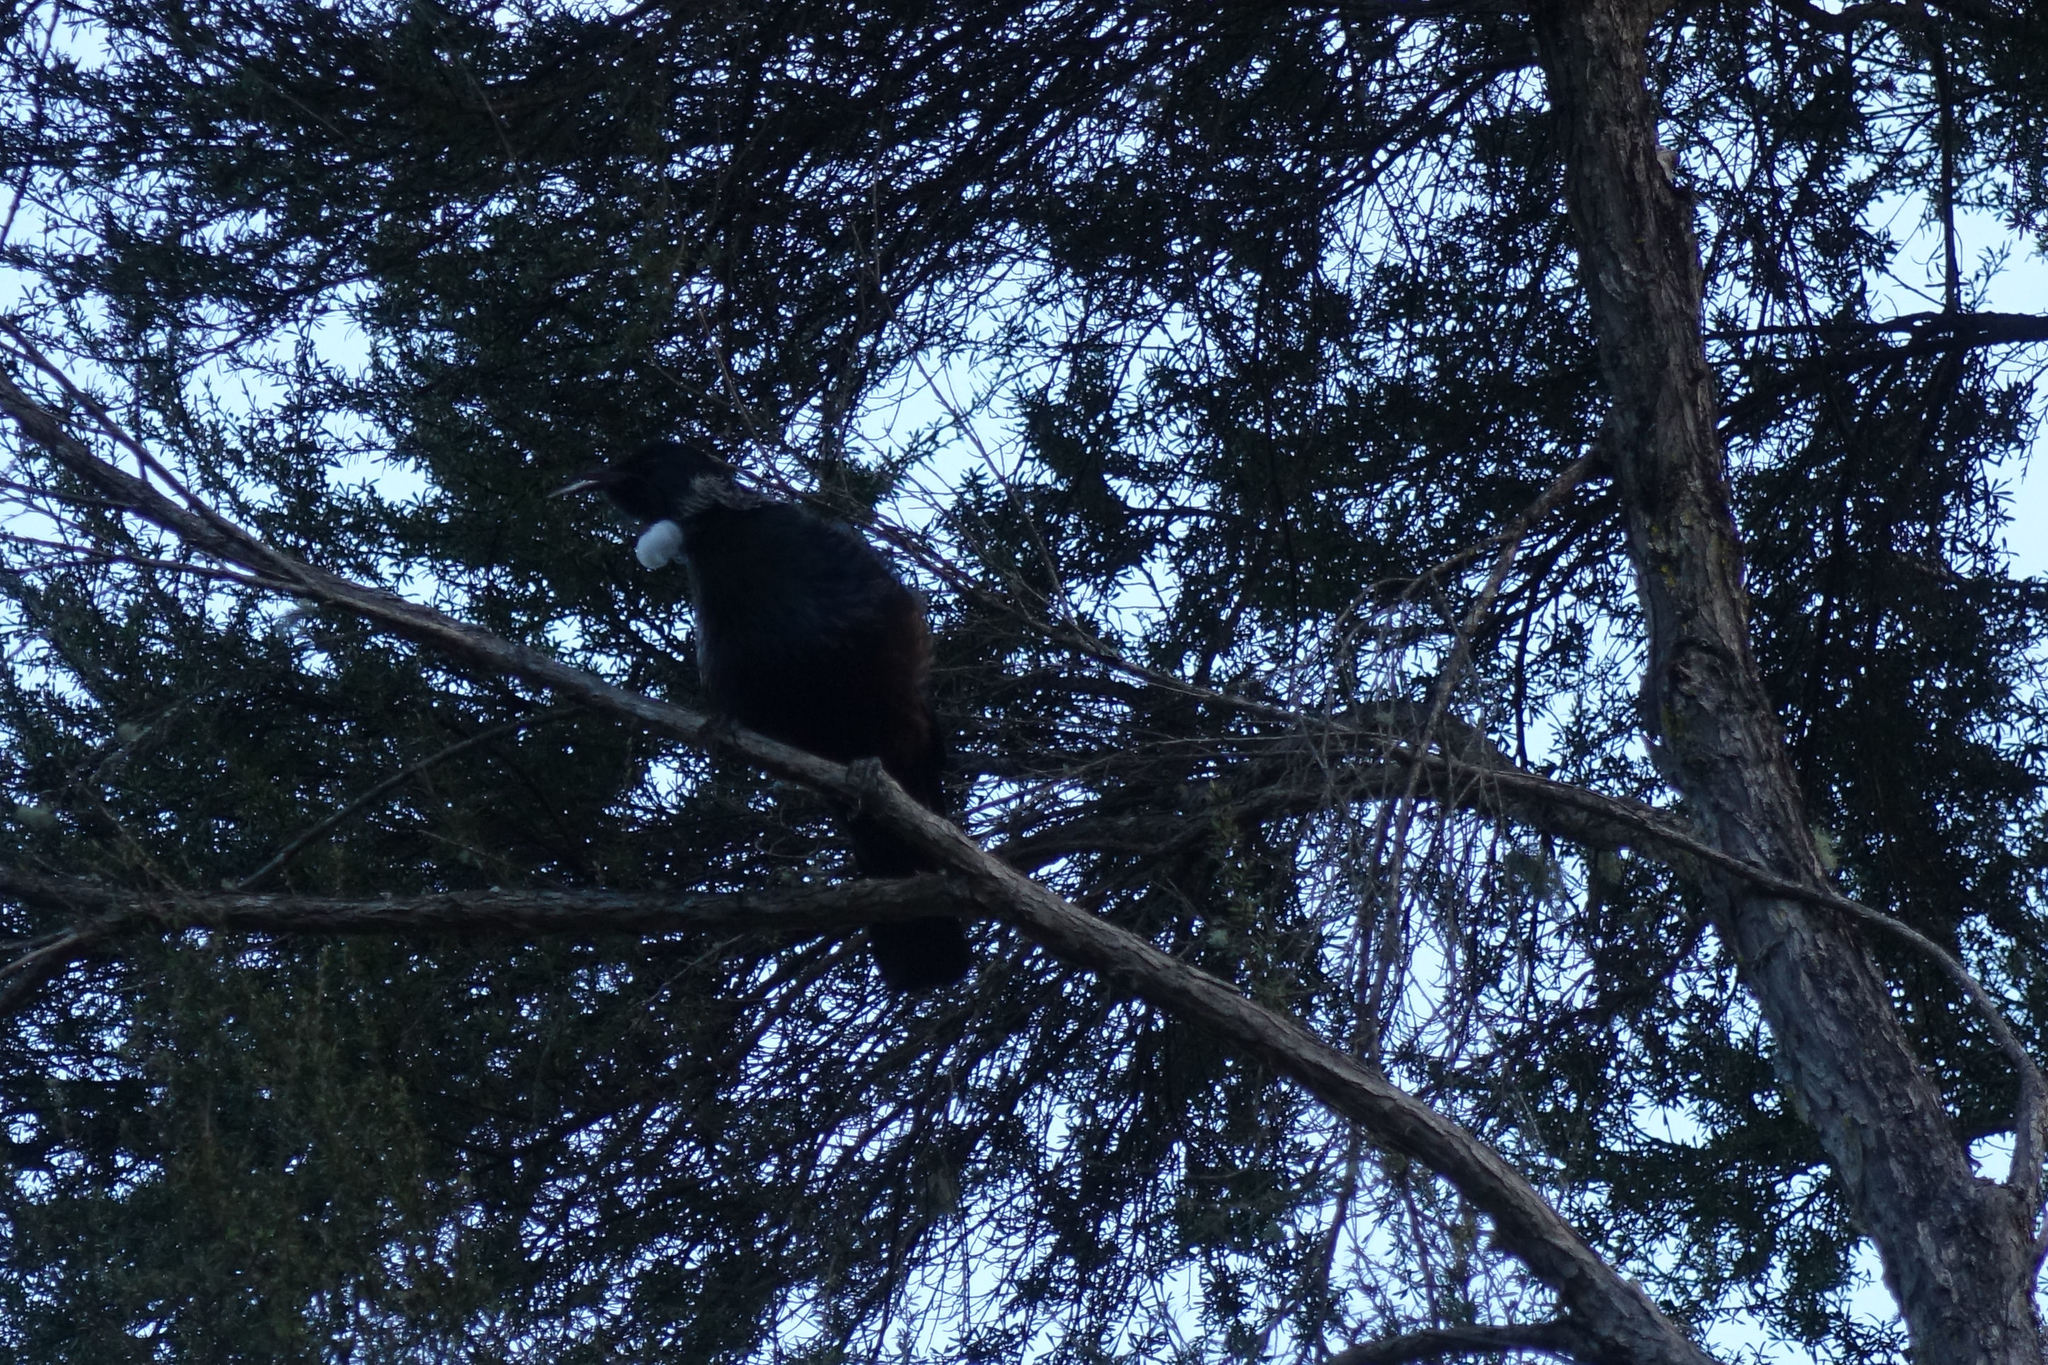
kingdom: Animalia
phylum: Chordata
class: Aves
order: Passeriformes
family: Meliphagidae
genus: Prosthemadera
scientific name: Prosthemadera novaeseelandiae
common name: Tui
